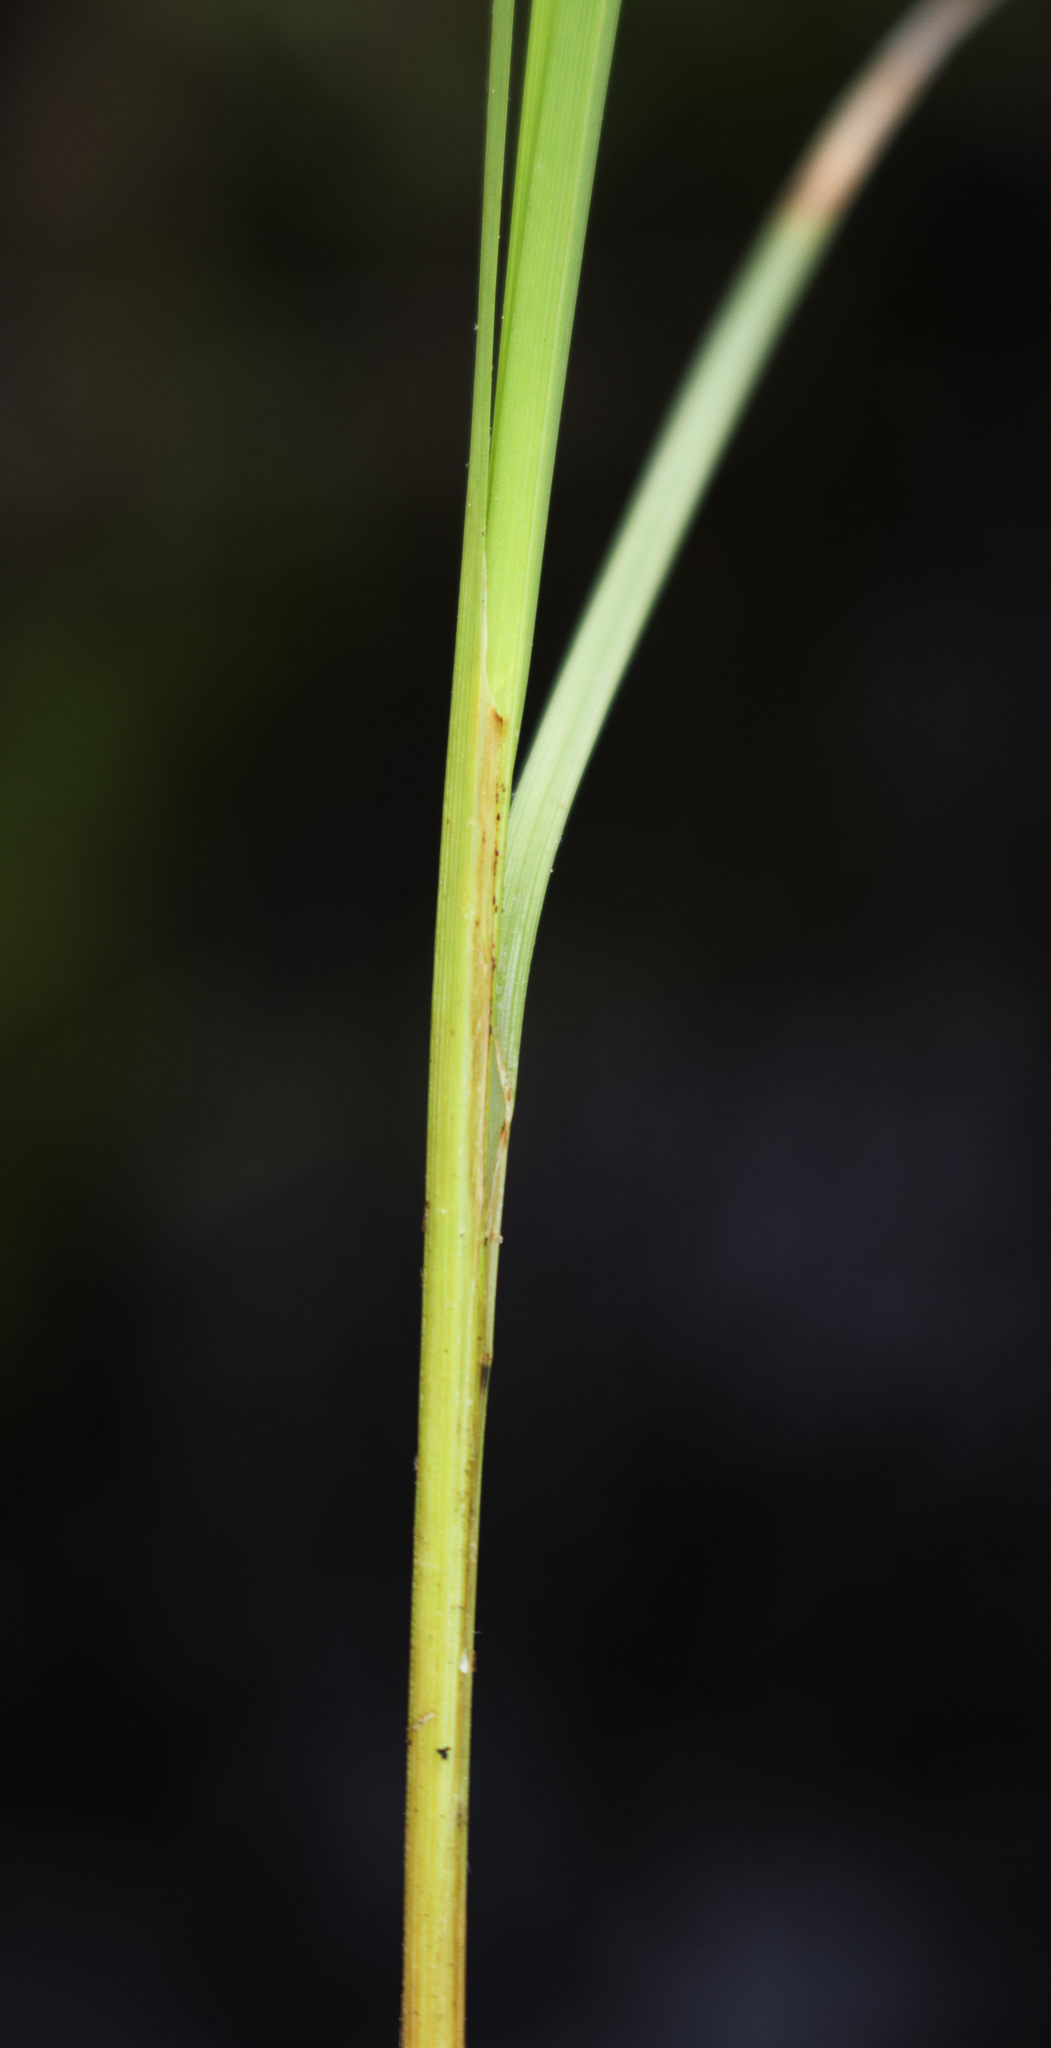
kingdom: Plantae
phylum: Tracheophyta
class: Liliopsida
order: Poales
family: Cyperaceae
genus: Carex
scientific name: Carex canescens
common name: White sedge
